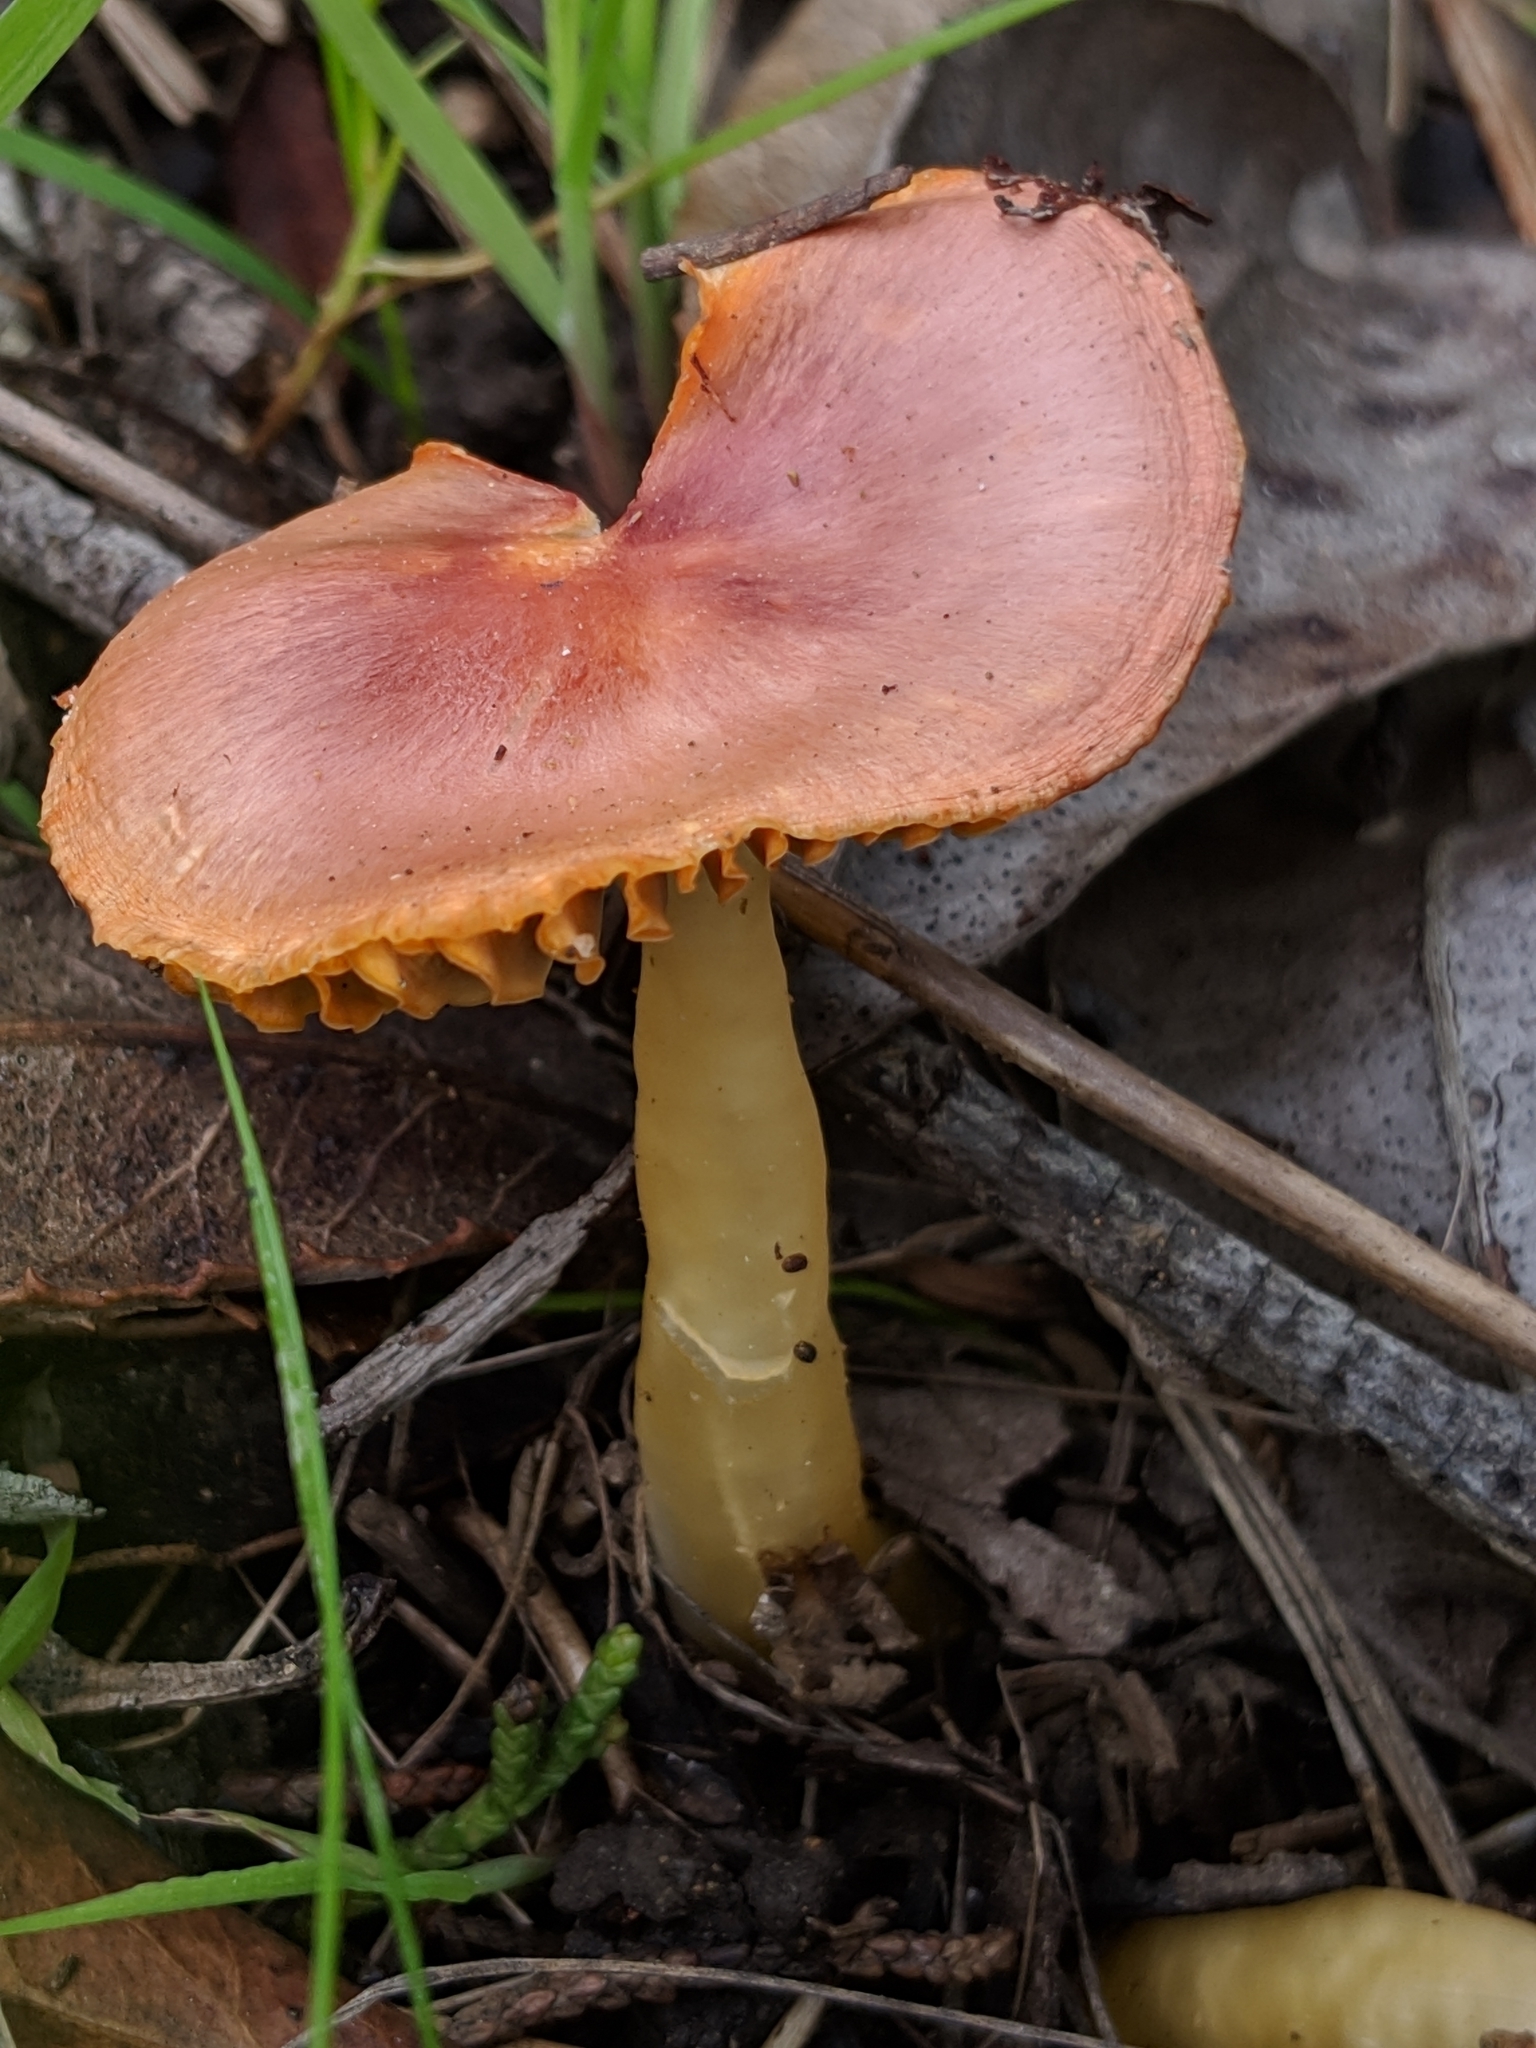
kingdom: Fungi
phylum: Basidiomycota
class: Agaricomycetes
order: Agaricales
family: Hygrophoraceae
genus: Gliophorus
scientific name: Gliophorus psittacinus
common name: Parrot wax-cap
